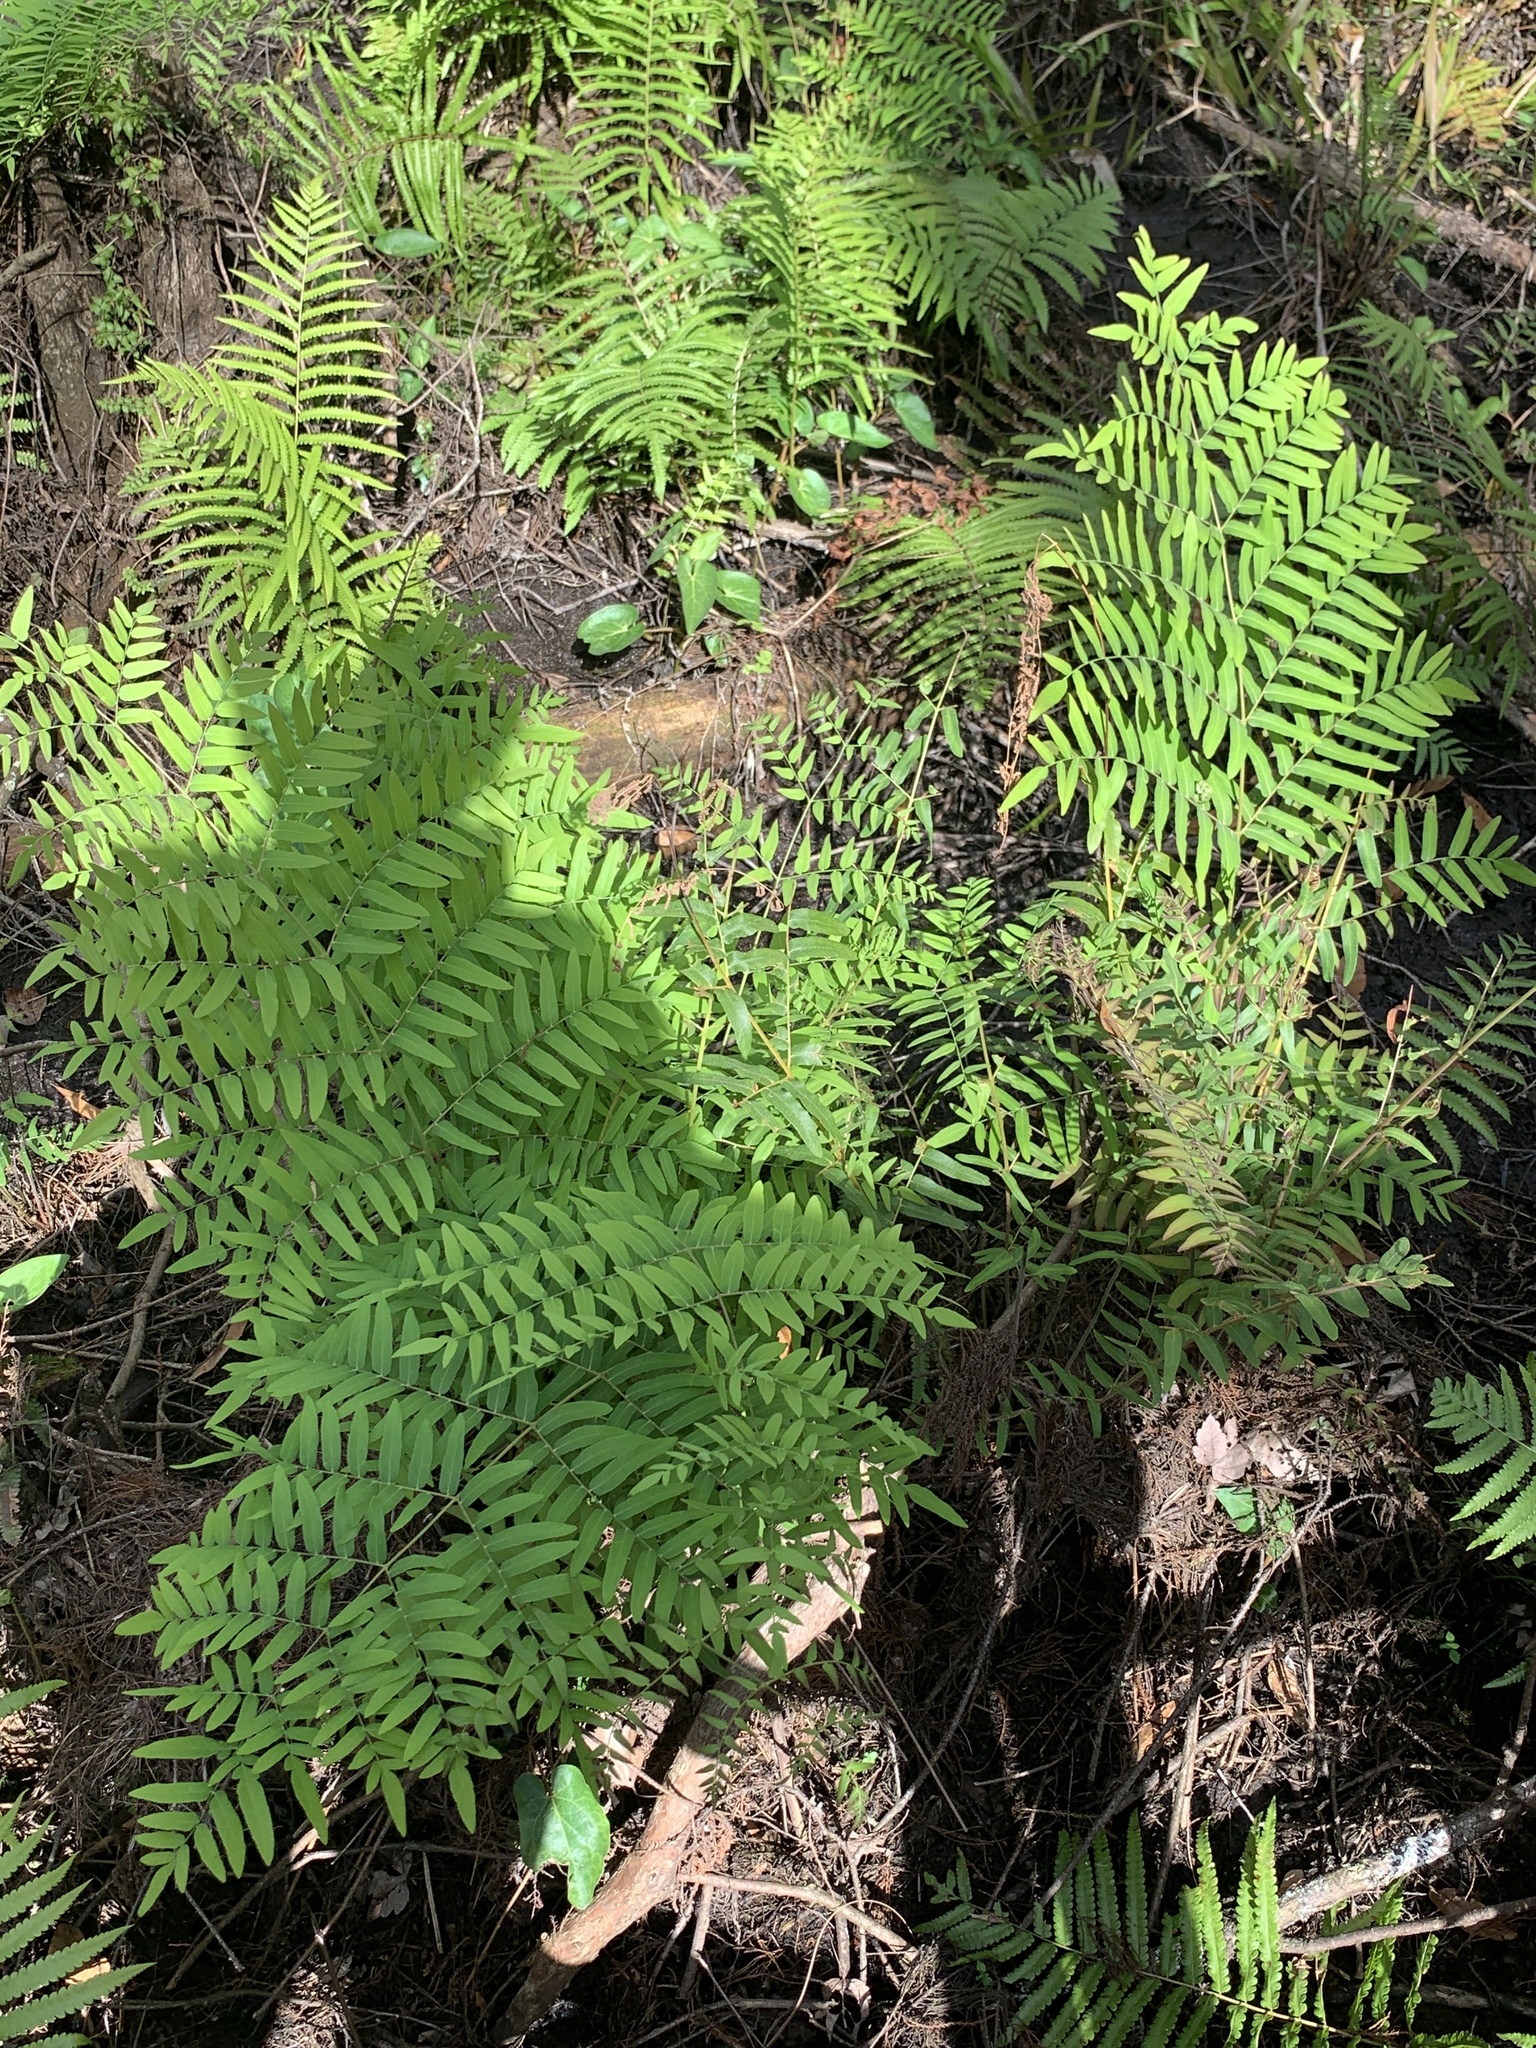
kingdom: Plantae
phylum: Tracheophyta
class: Polypodiopsida
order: Osmundales
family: Osmundaceae
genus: Osmunda
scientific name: Osmunda spectabilis
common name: American royal fern
